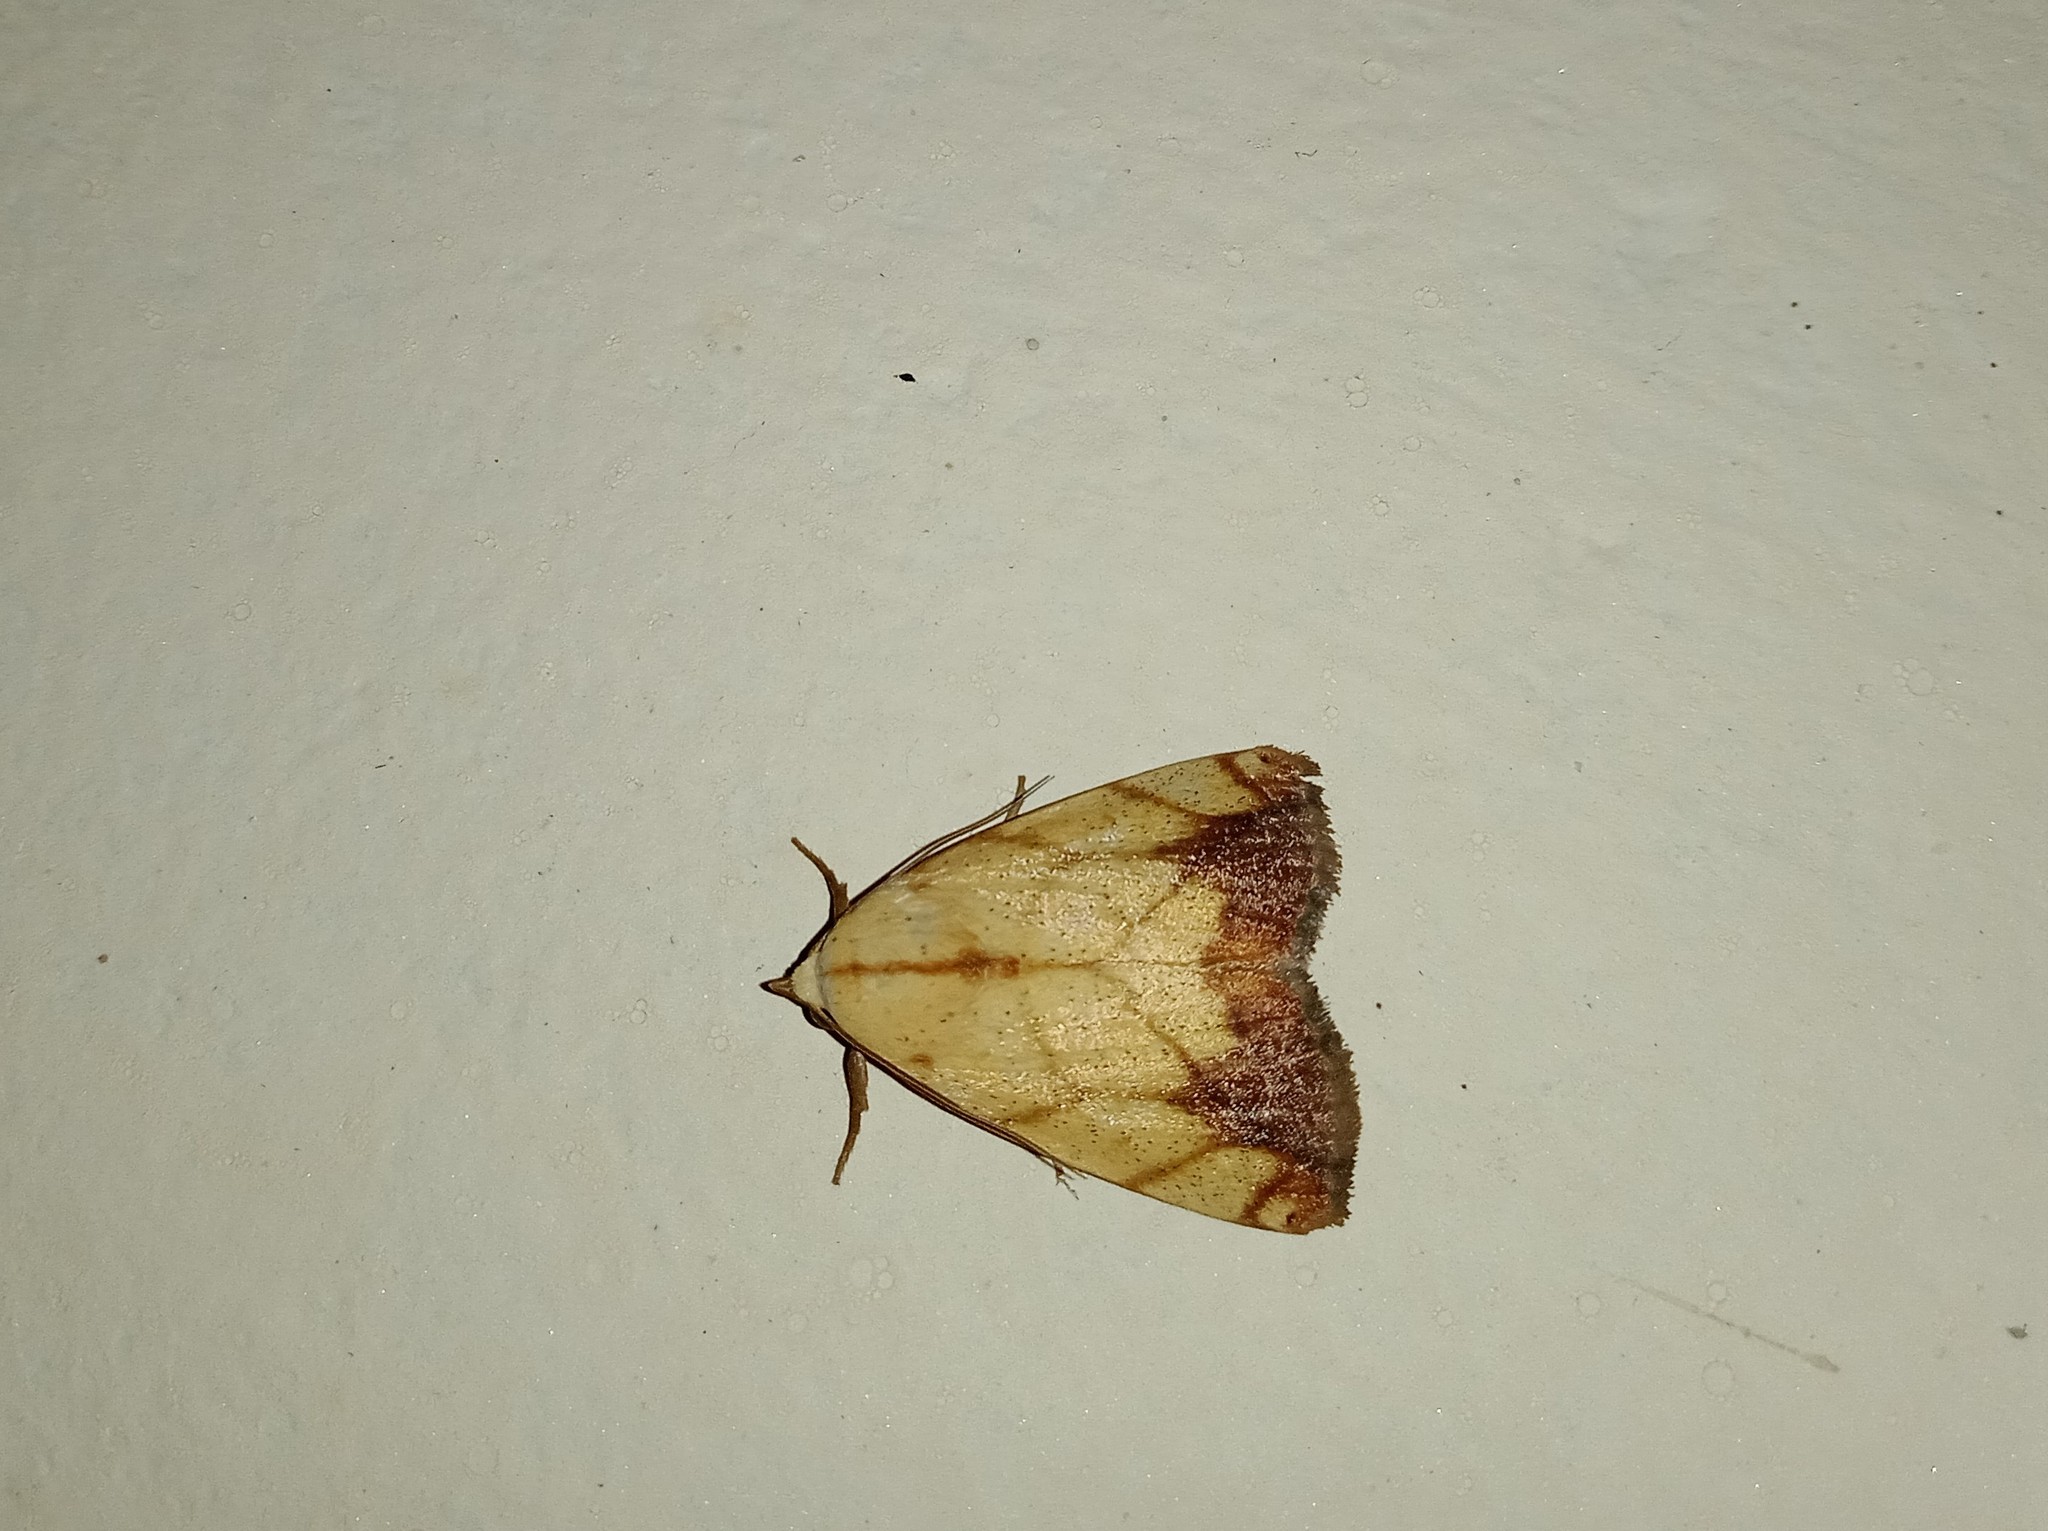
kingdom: Animalia
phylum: Arthropoda
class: Insecta
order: Lepidoptera
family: Nolidae
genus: Xanthodes
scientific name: Xanthodes transversa
